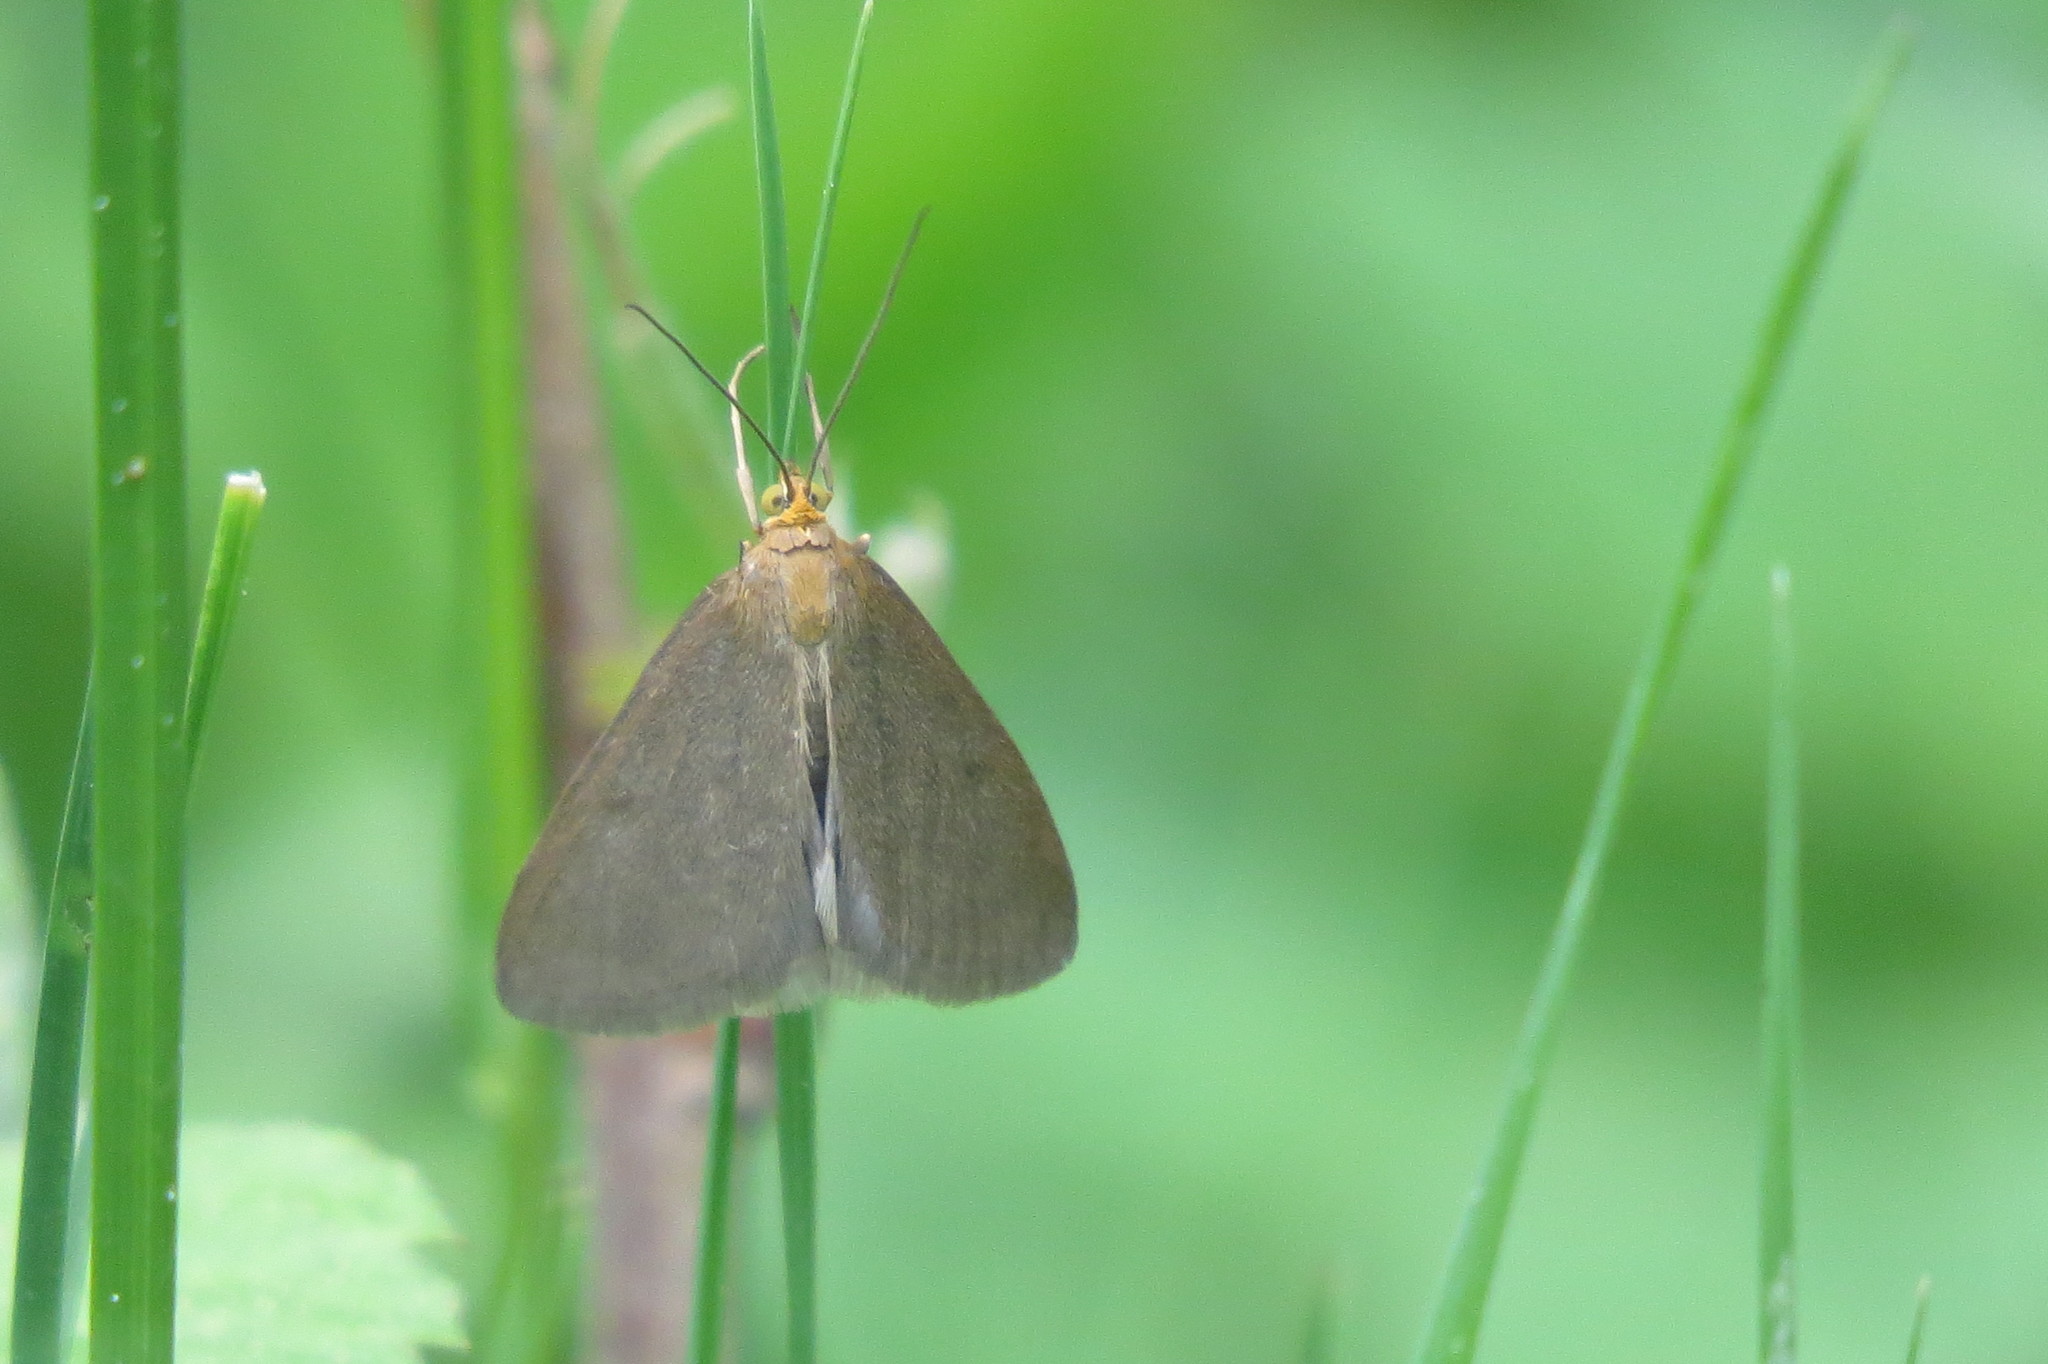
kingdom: Animalia
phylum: Arthropoda
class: Insecta
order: Lepidoptera
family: Crambidae
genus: Evergestis
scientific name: Evergestis aenealis
